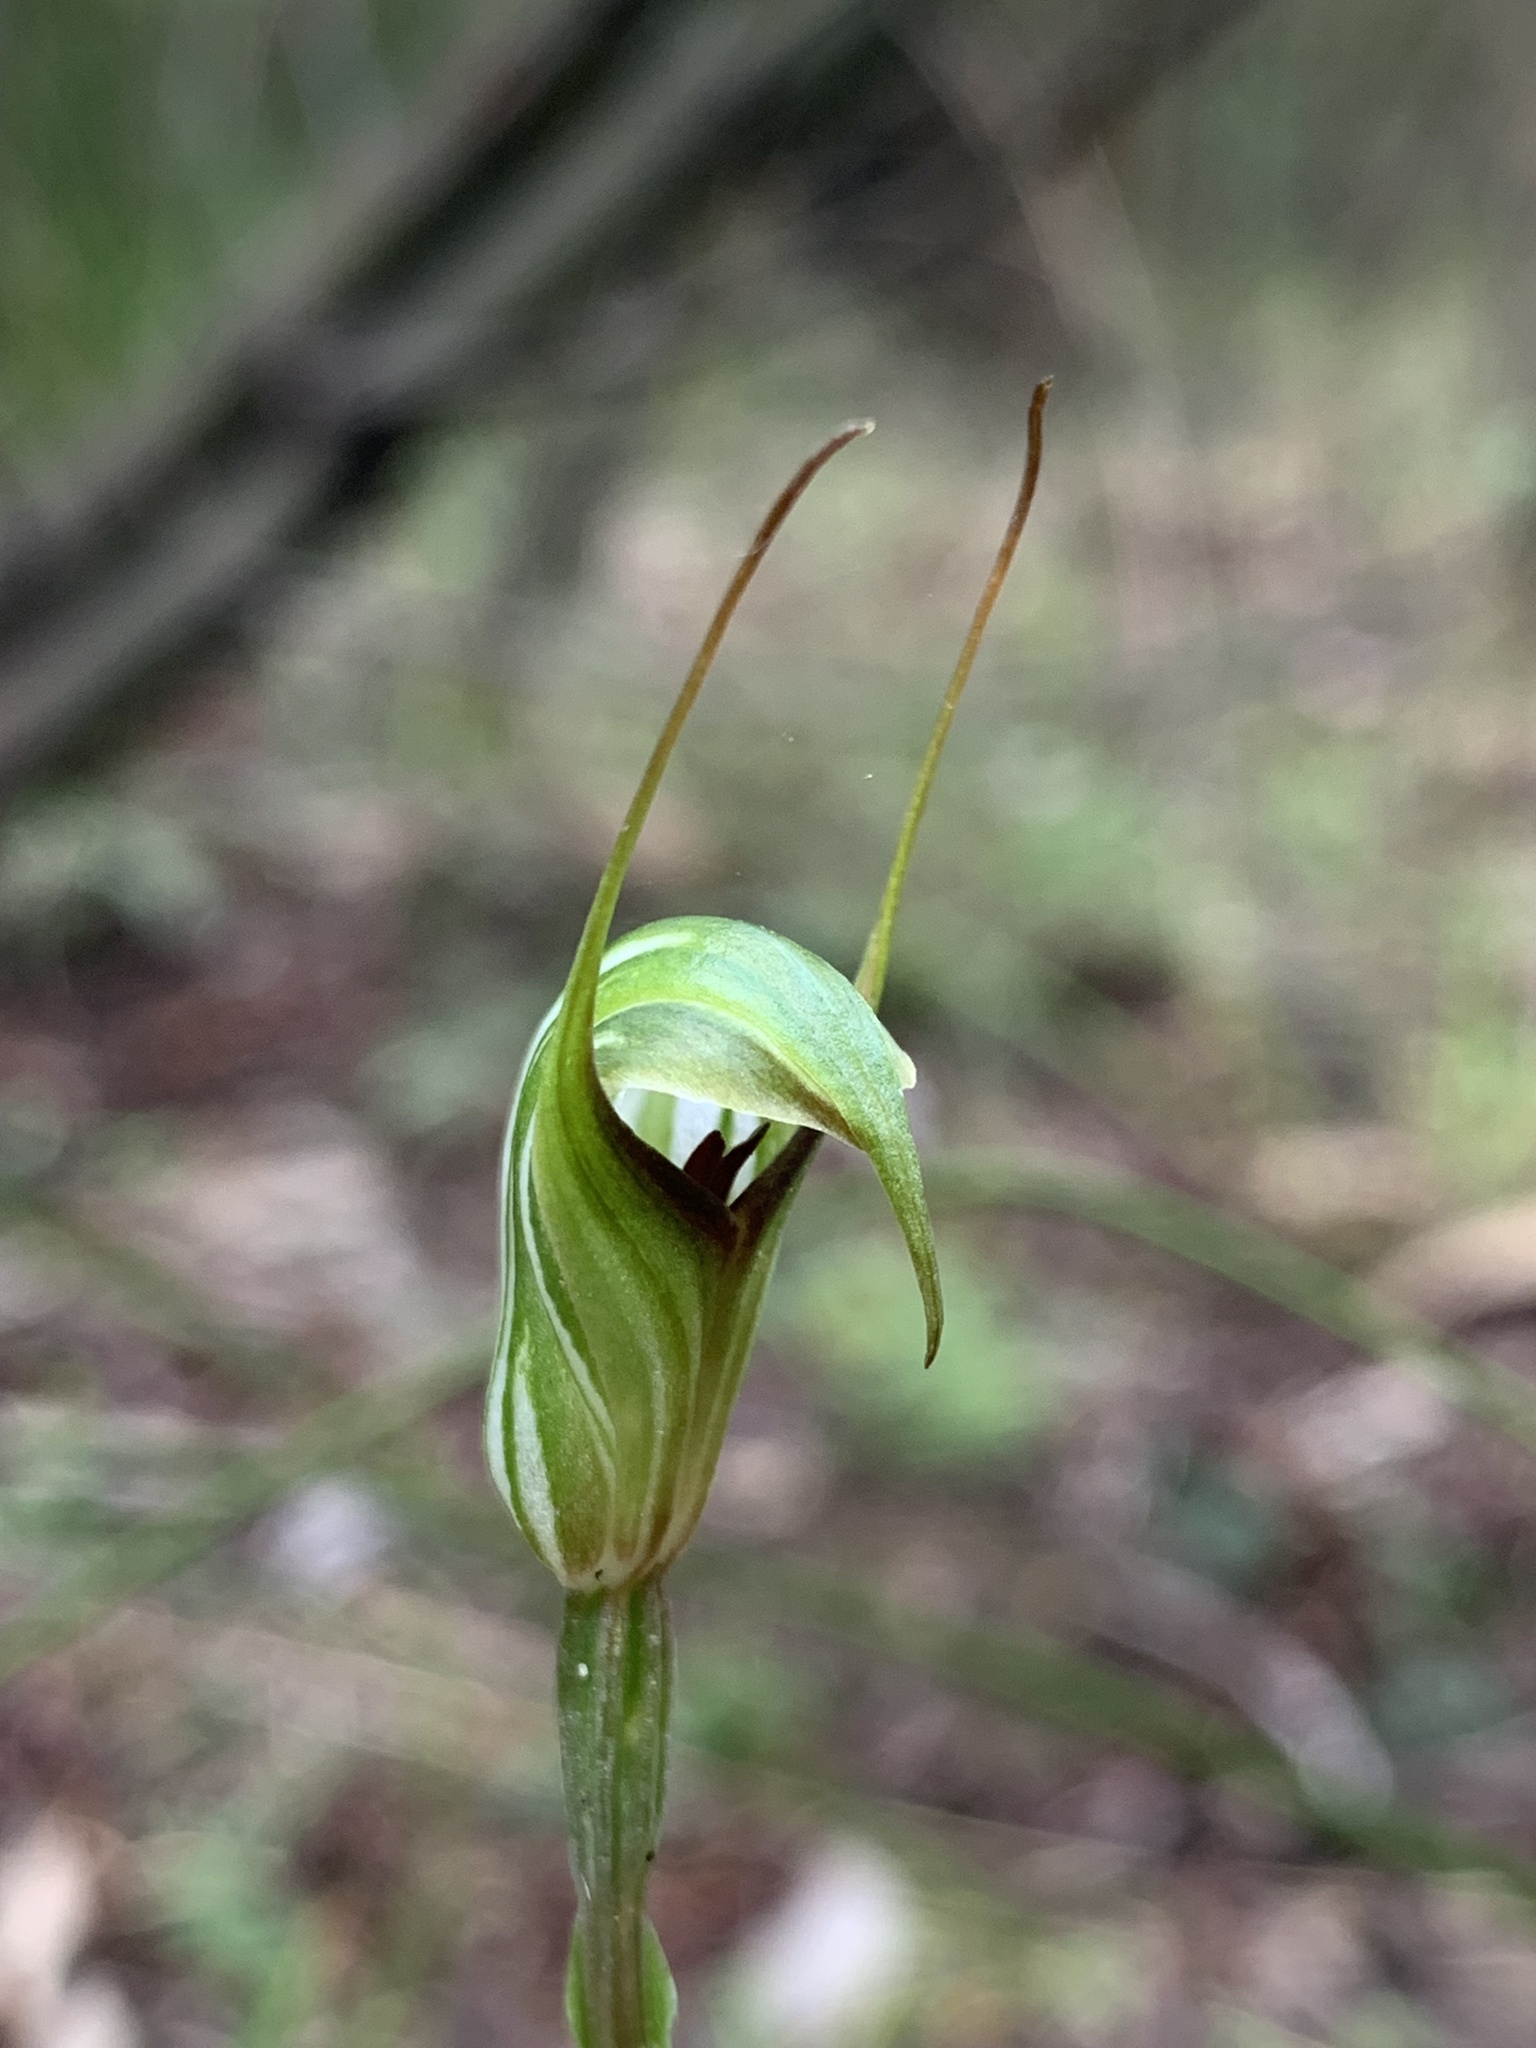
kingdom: Plantae
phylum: Tracheophyta
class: Liliopsida
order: Asparagales
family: Orchidaceae
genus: Pterostylis
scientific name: Pterostylis concinna
